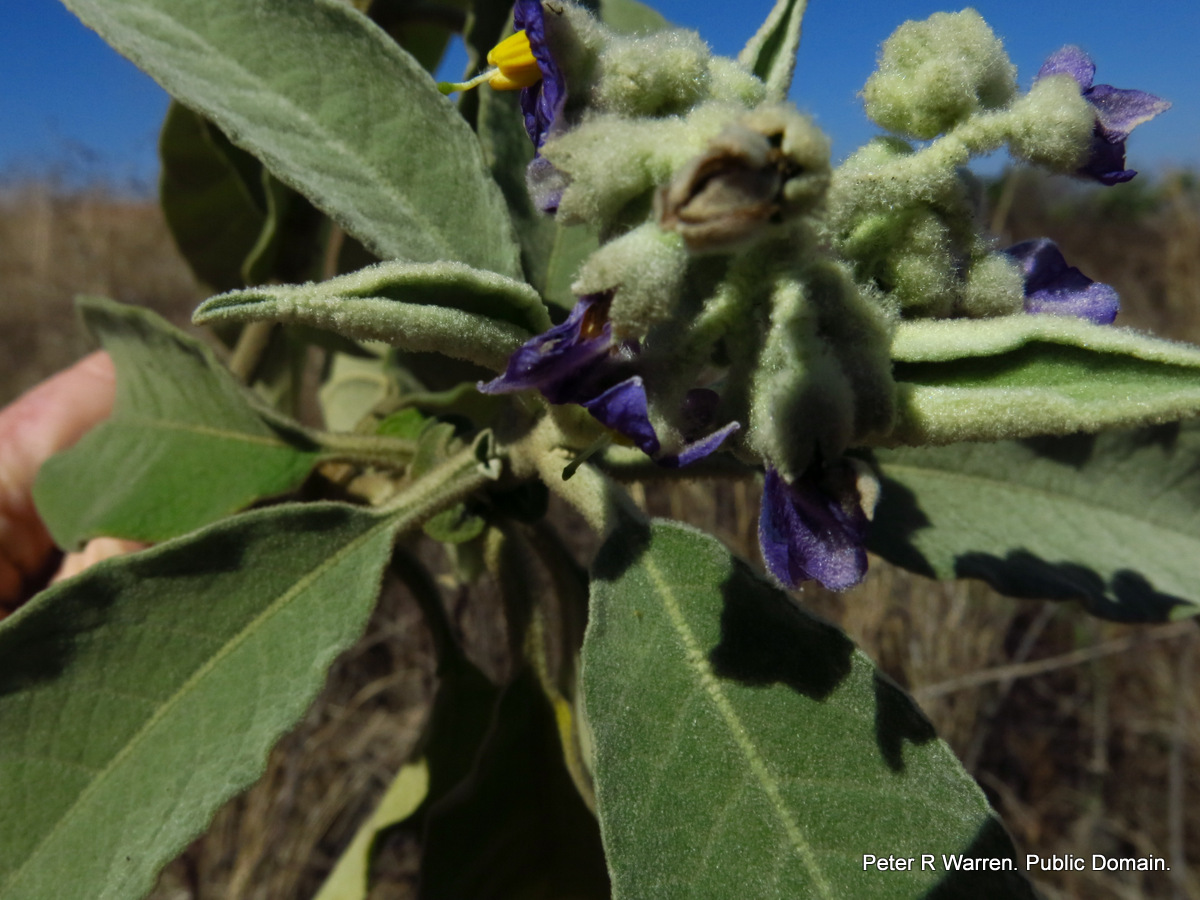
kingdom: Plantae
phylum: Tracheophyta
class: Magnoliopsida
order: Solanales
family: Solanaceae
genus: Solanum
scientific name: Solanum mauritianum
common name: Earleaf nightshade
